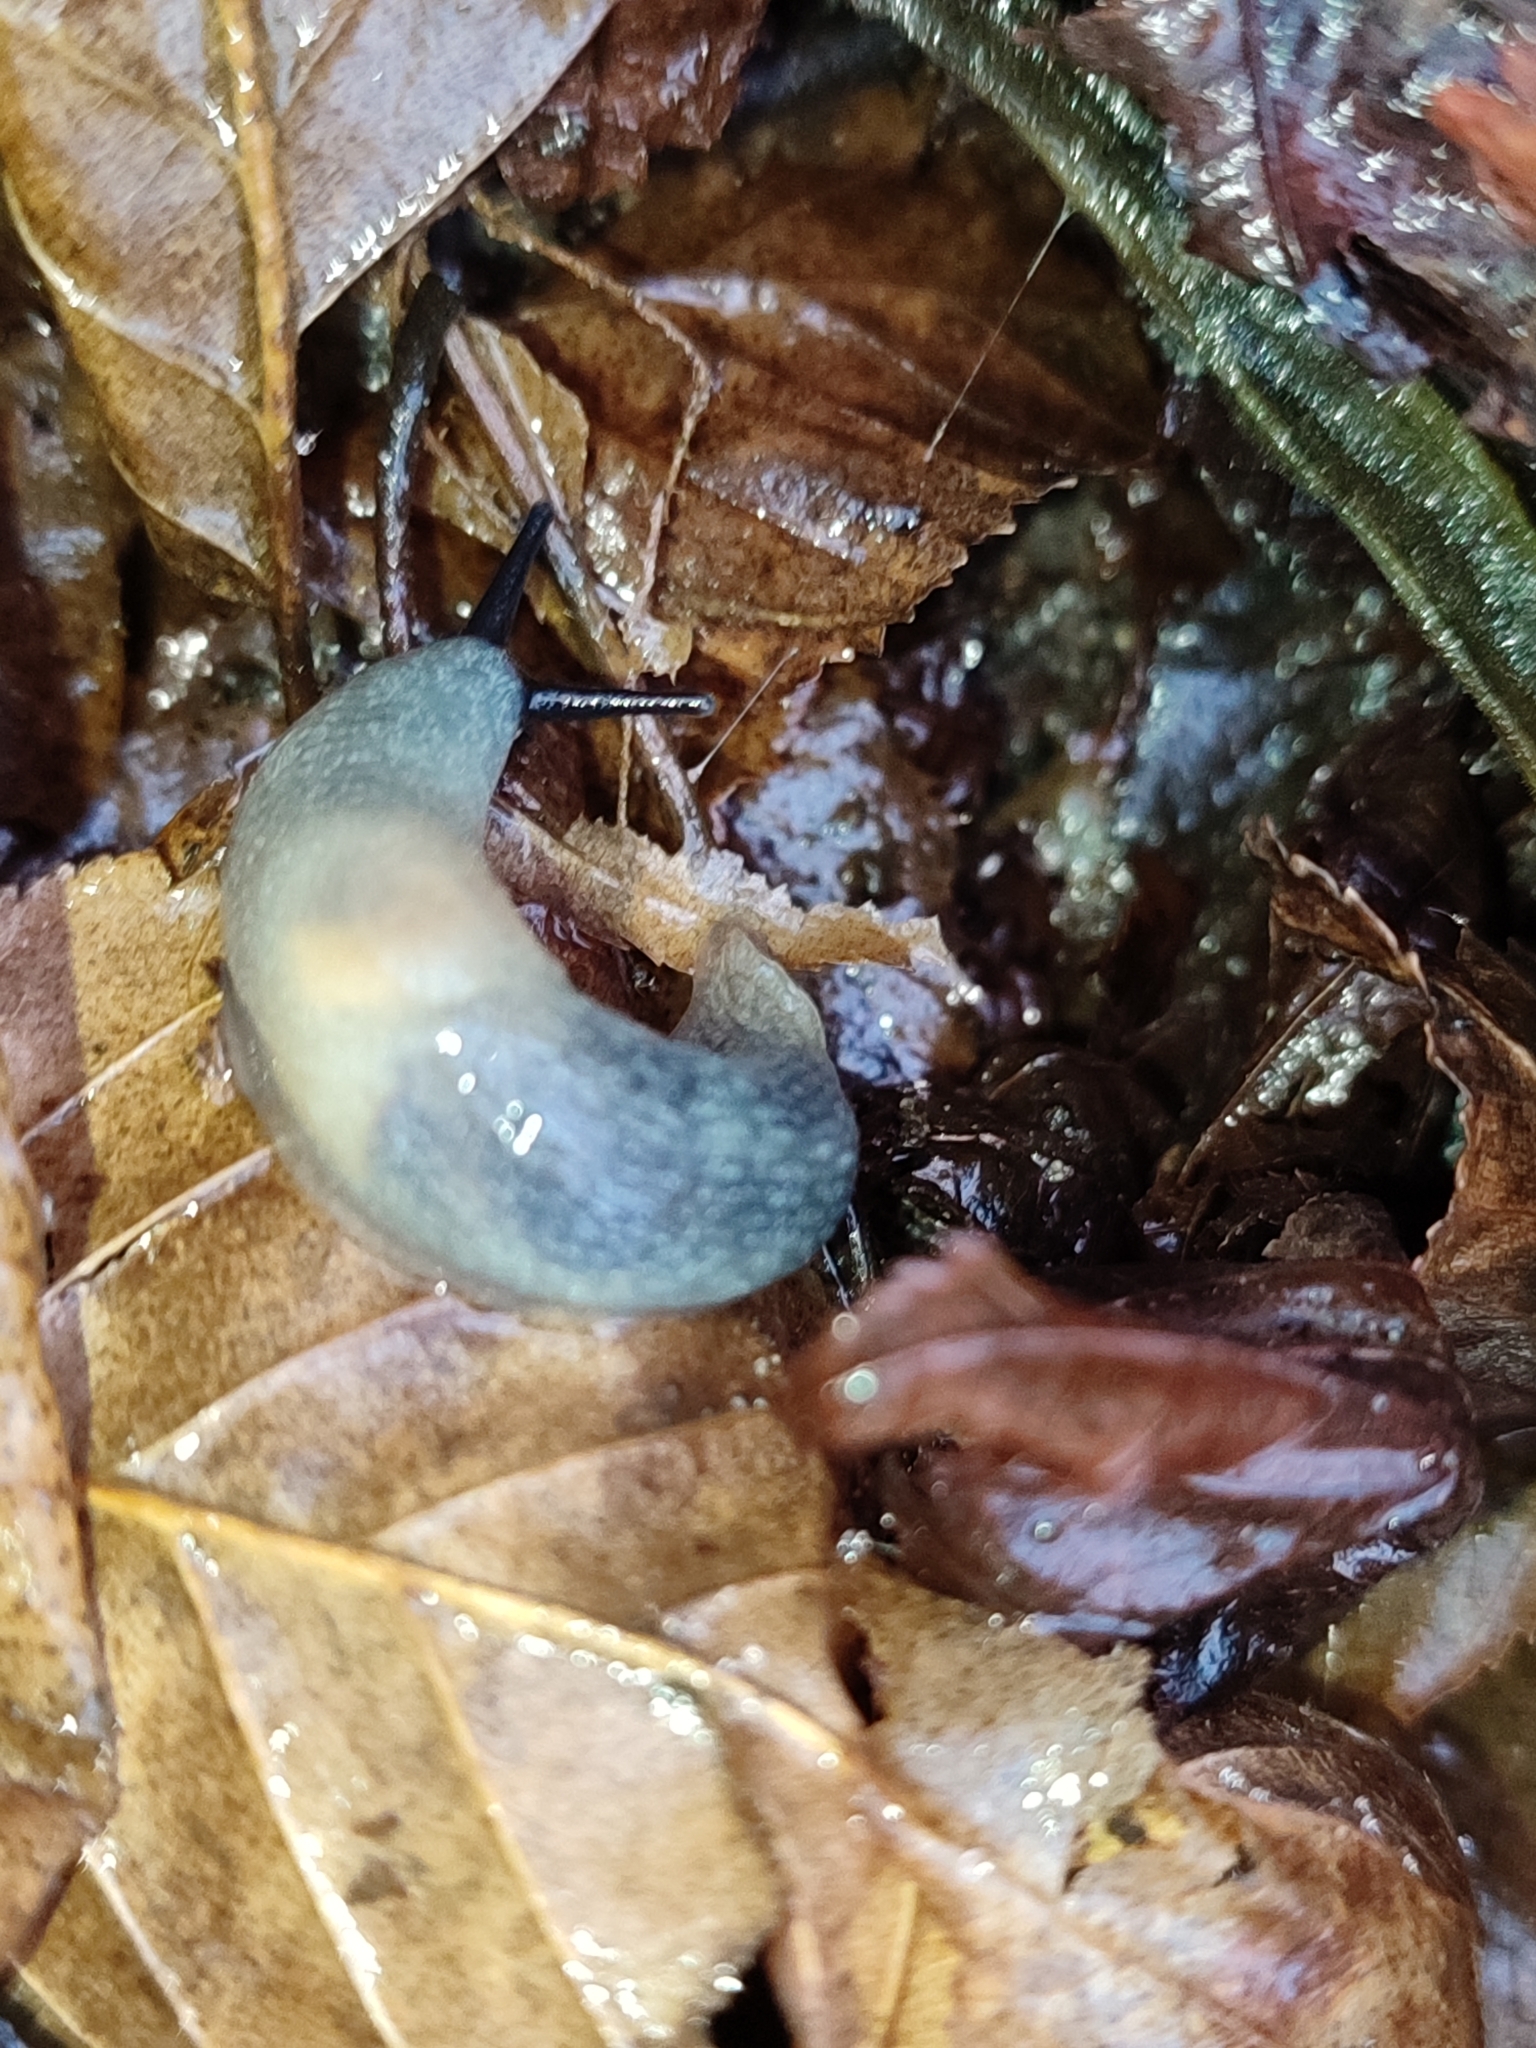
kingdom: Animalia
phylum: Mollusca
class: Gastropoda
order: Stylommatophora
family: Agriolimacidae
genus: Krynickillus
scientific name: Krynickillus melanocephalus
